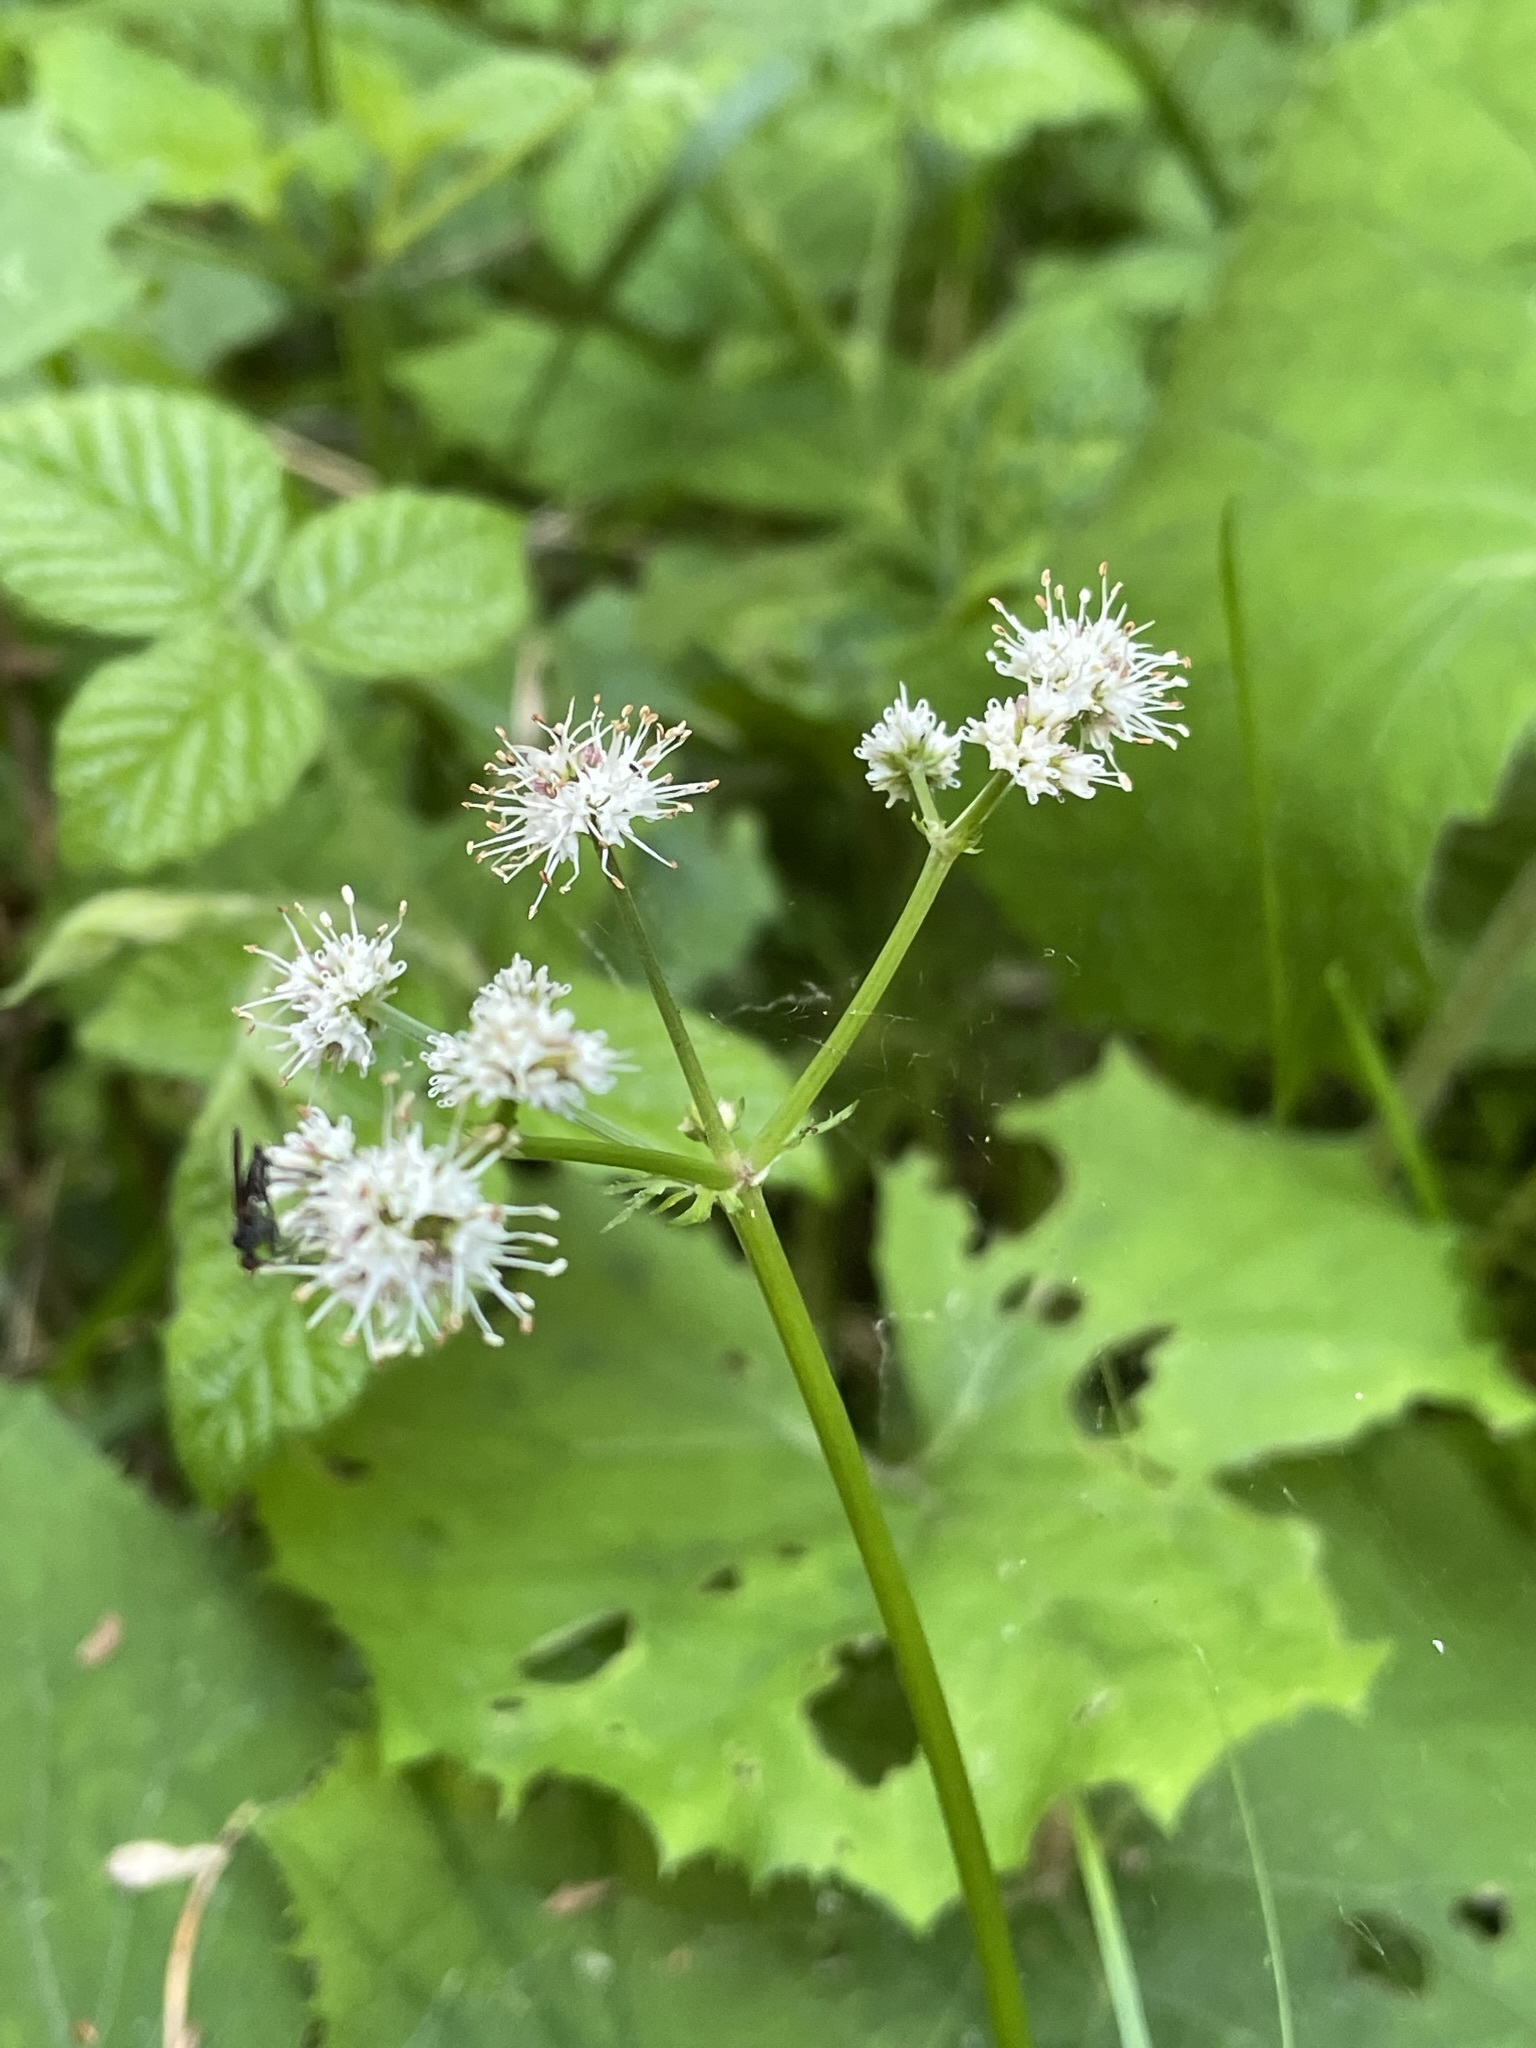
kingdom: Plantae
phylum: Tracheophyta
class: Magnoliopsida
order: Apiales
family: Apiaceae
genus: Sanicula
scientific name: Sanicula europaea
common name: Sanicle
